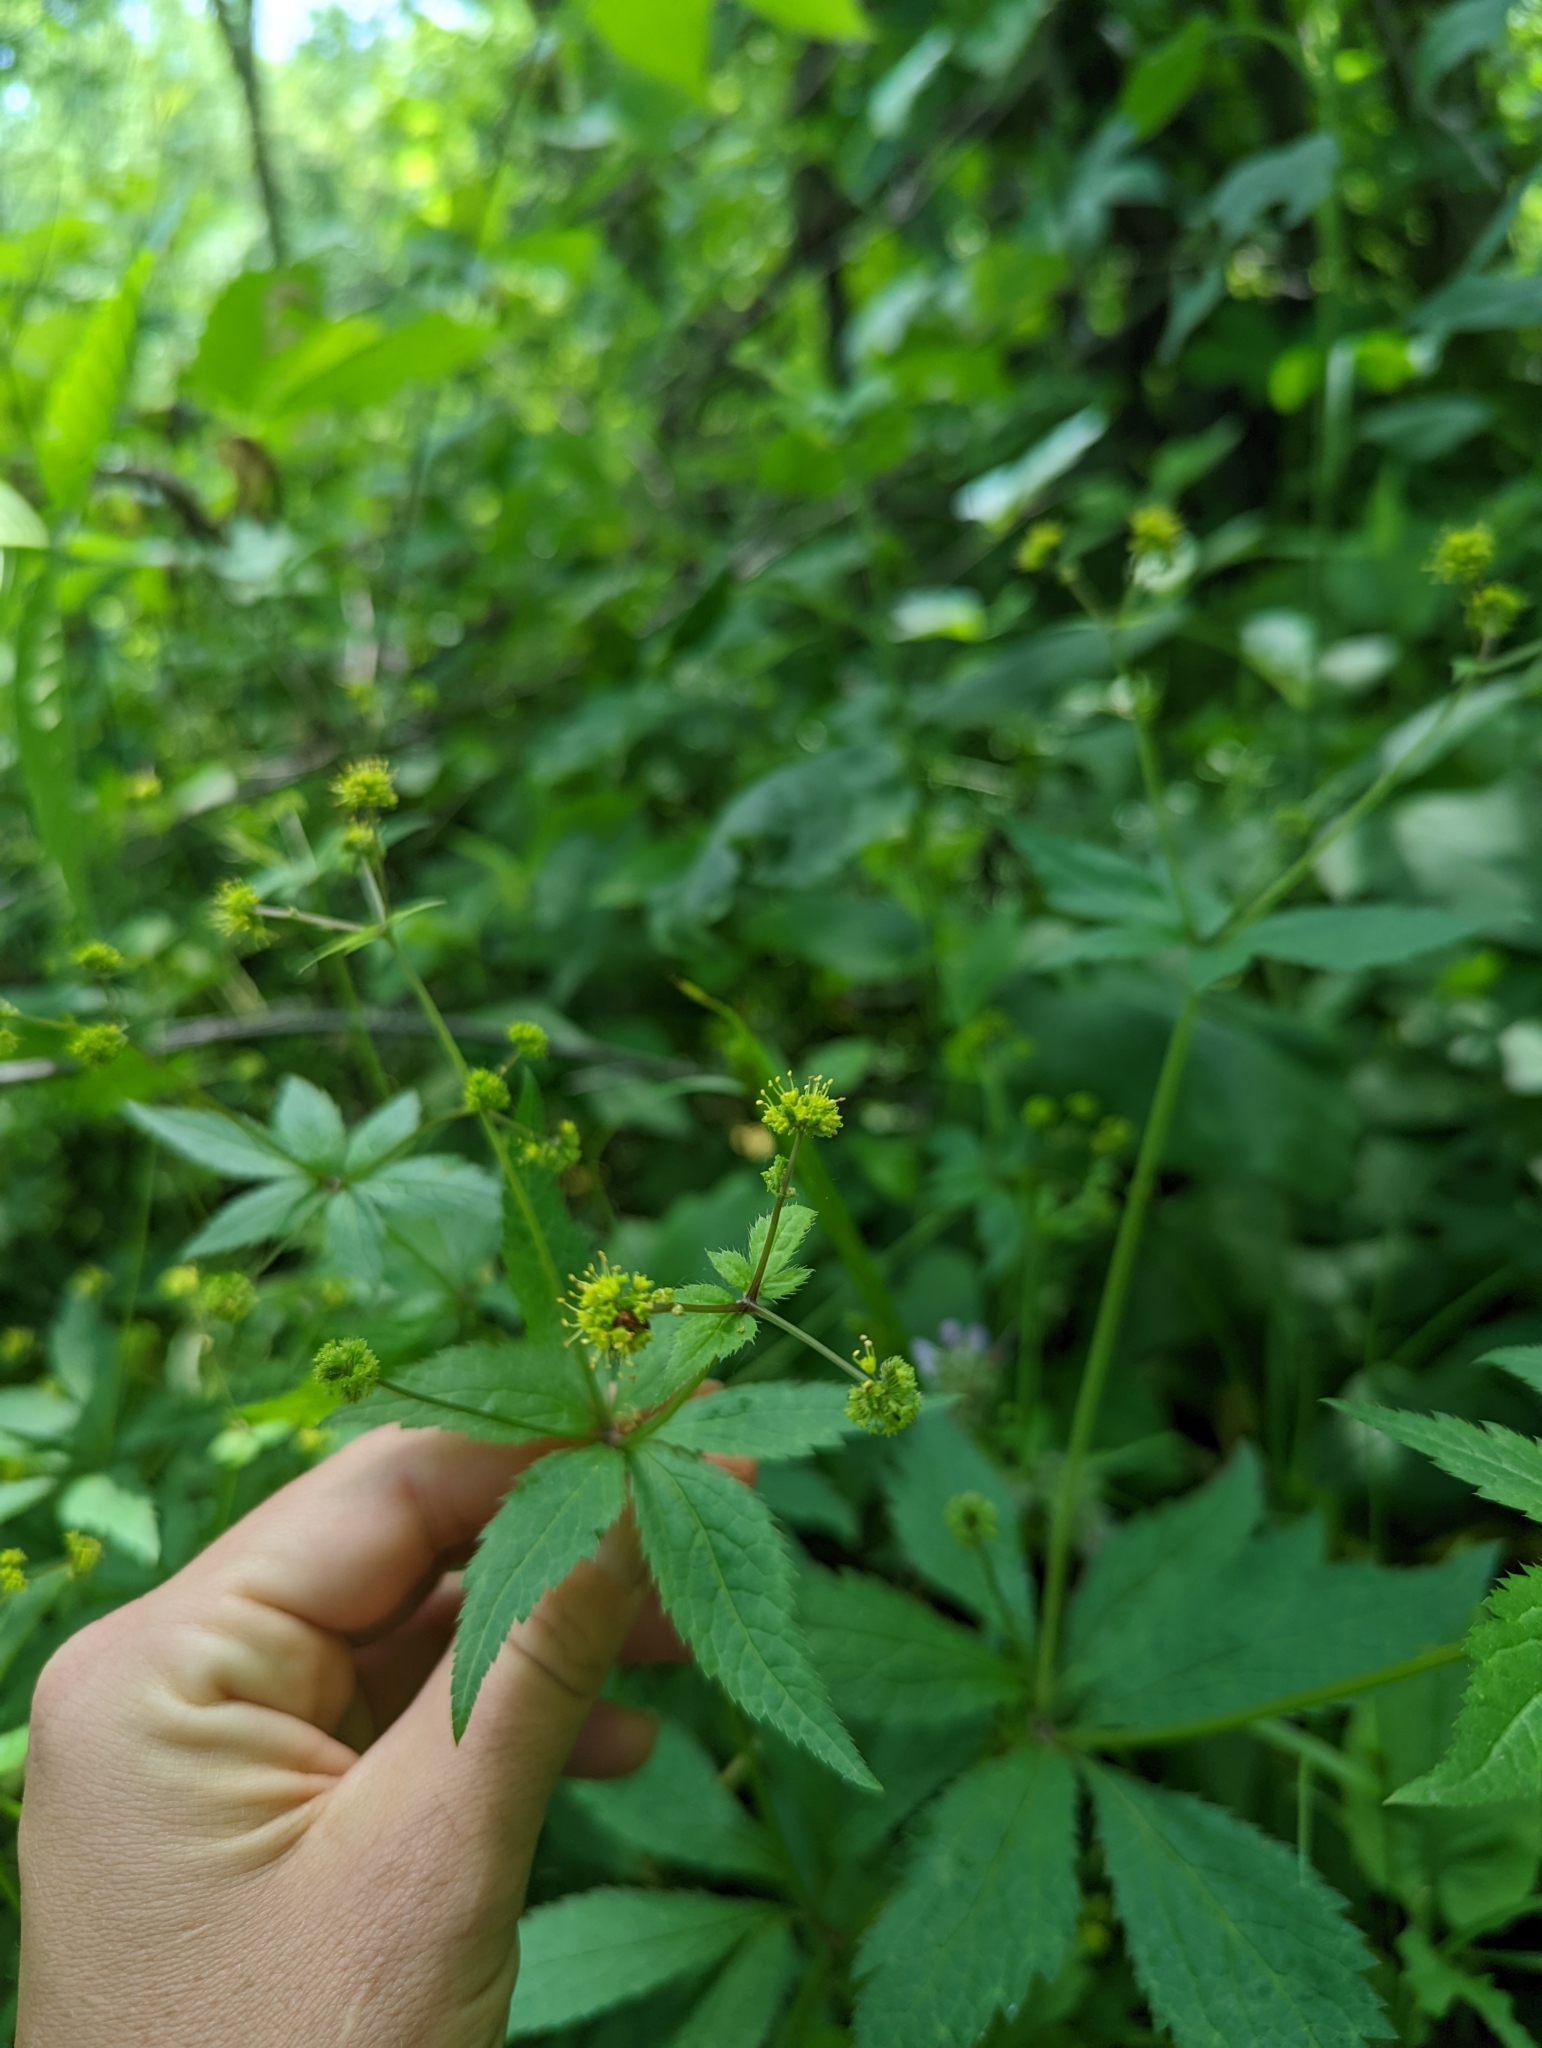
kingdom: Plantae
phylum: Tracheophyta
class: Magnoliopsida
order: Apiales
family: Apiaceae
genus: Sanicula
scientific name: Sanicula odorata
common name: Cluster sanicle
